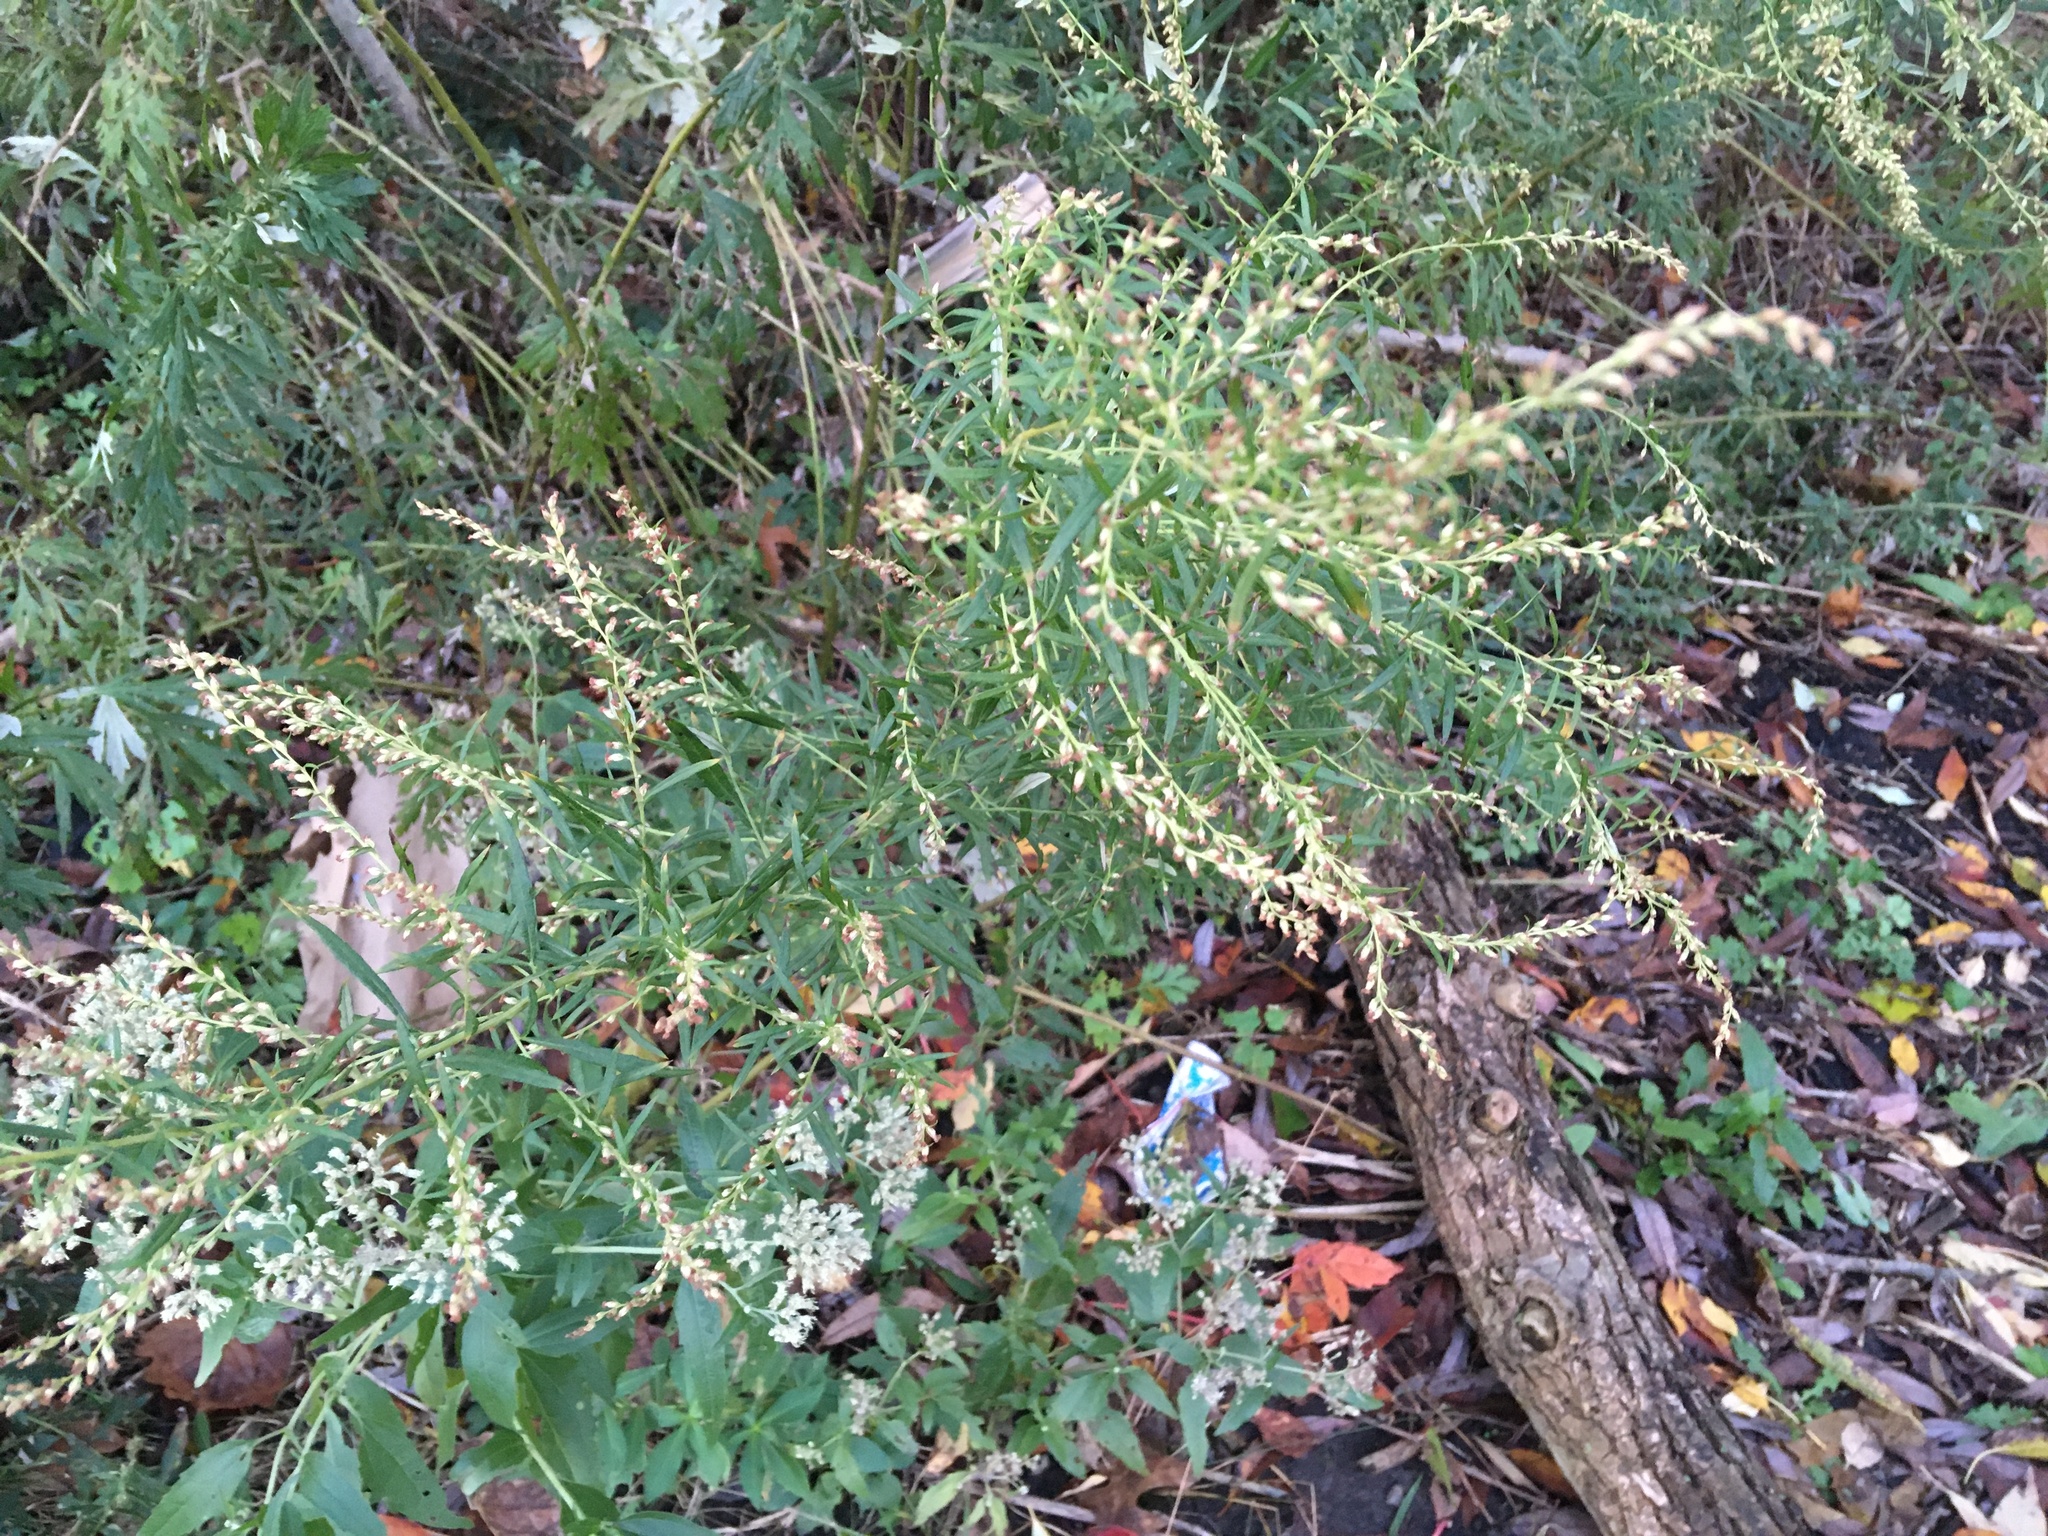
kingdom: Plantae
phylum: Tracheophyta
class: Magnoliopsida
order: Asterales
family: Asteraceae
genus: Artemisia
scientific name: Artemisia vulgaris
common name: Mugwort
